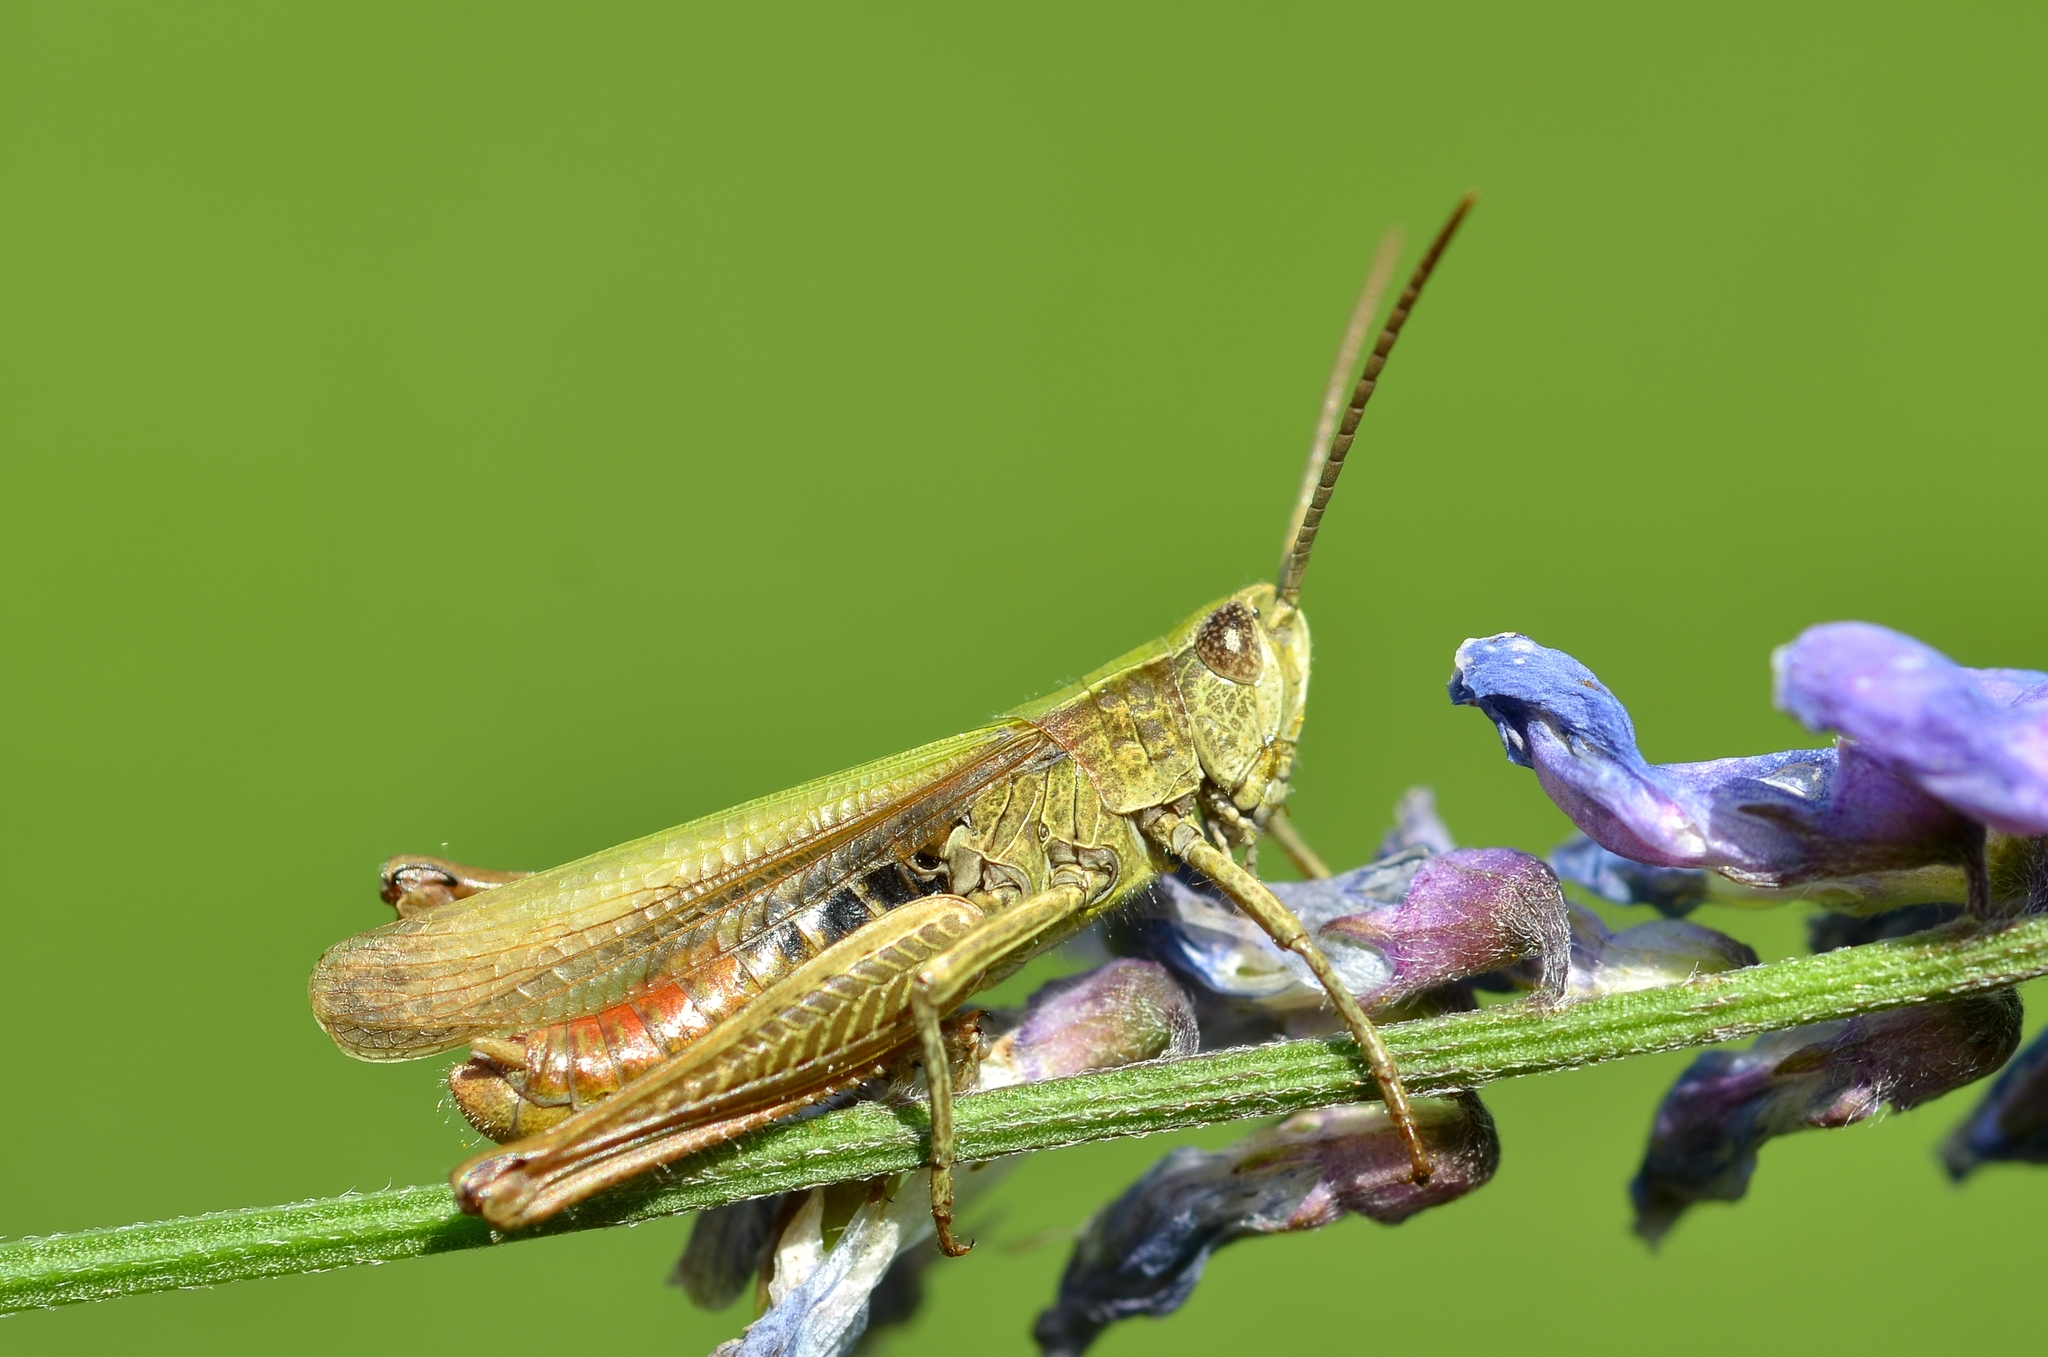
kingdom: Animalia
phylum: Arthropoda
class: Insecta
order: Orthoptera
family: Acrididae
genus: Chorthippus
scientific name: Chorthippus dorsatus
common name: Steppe grasshopper
